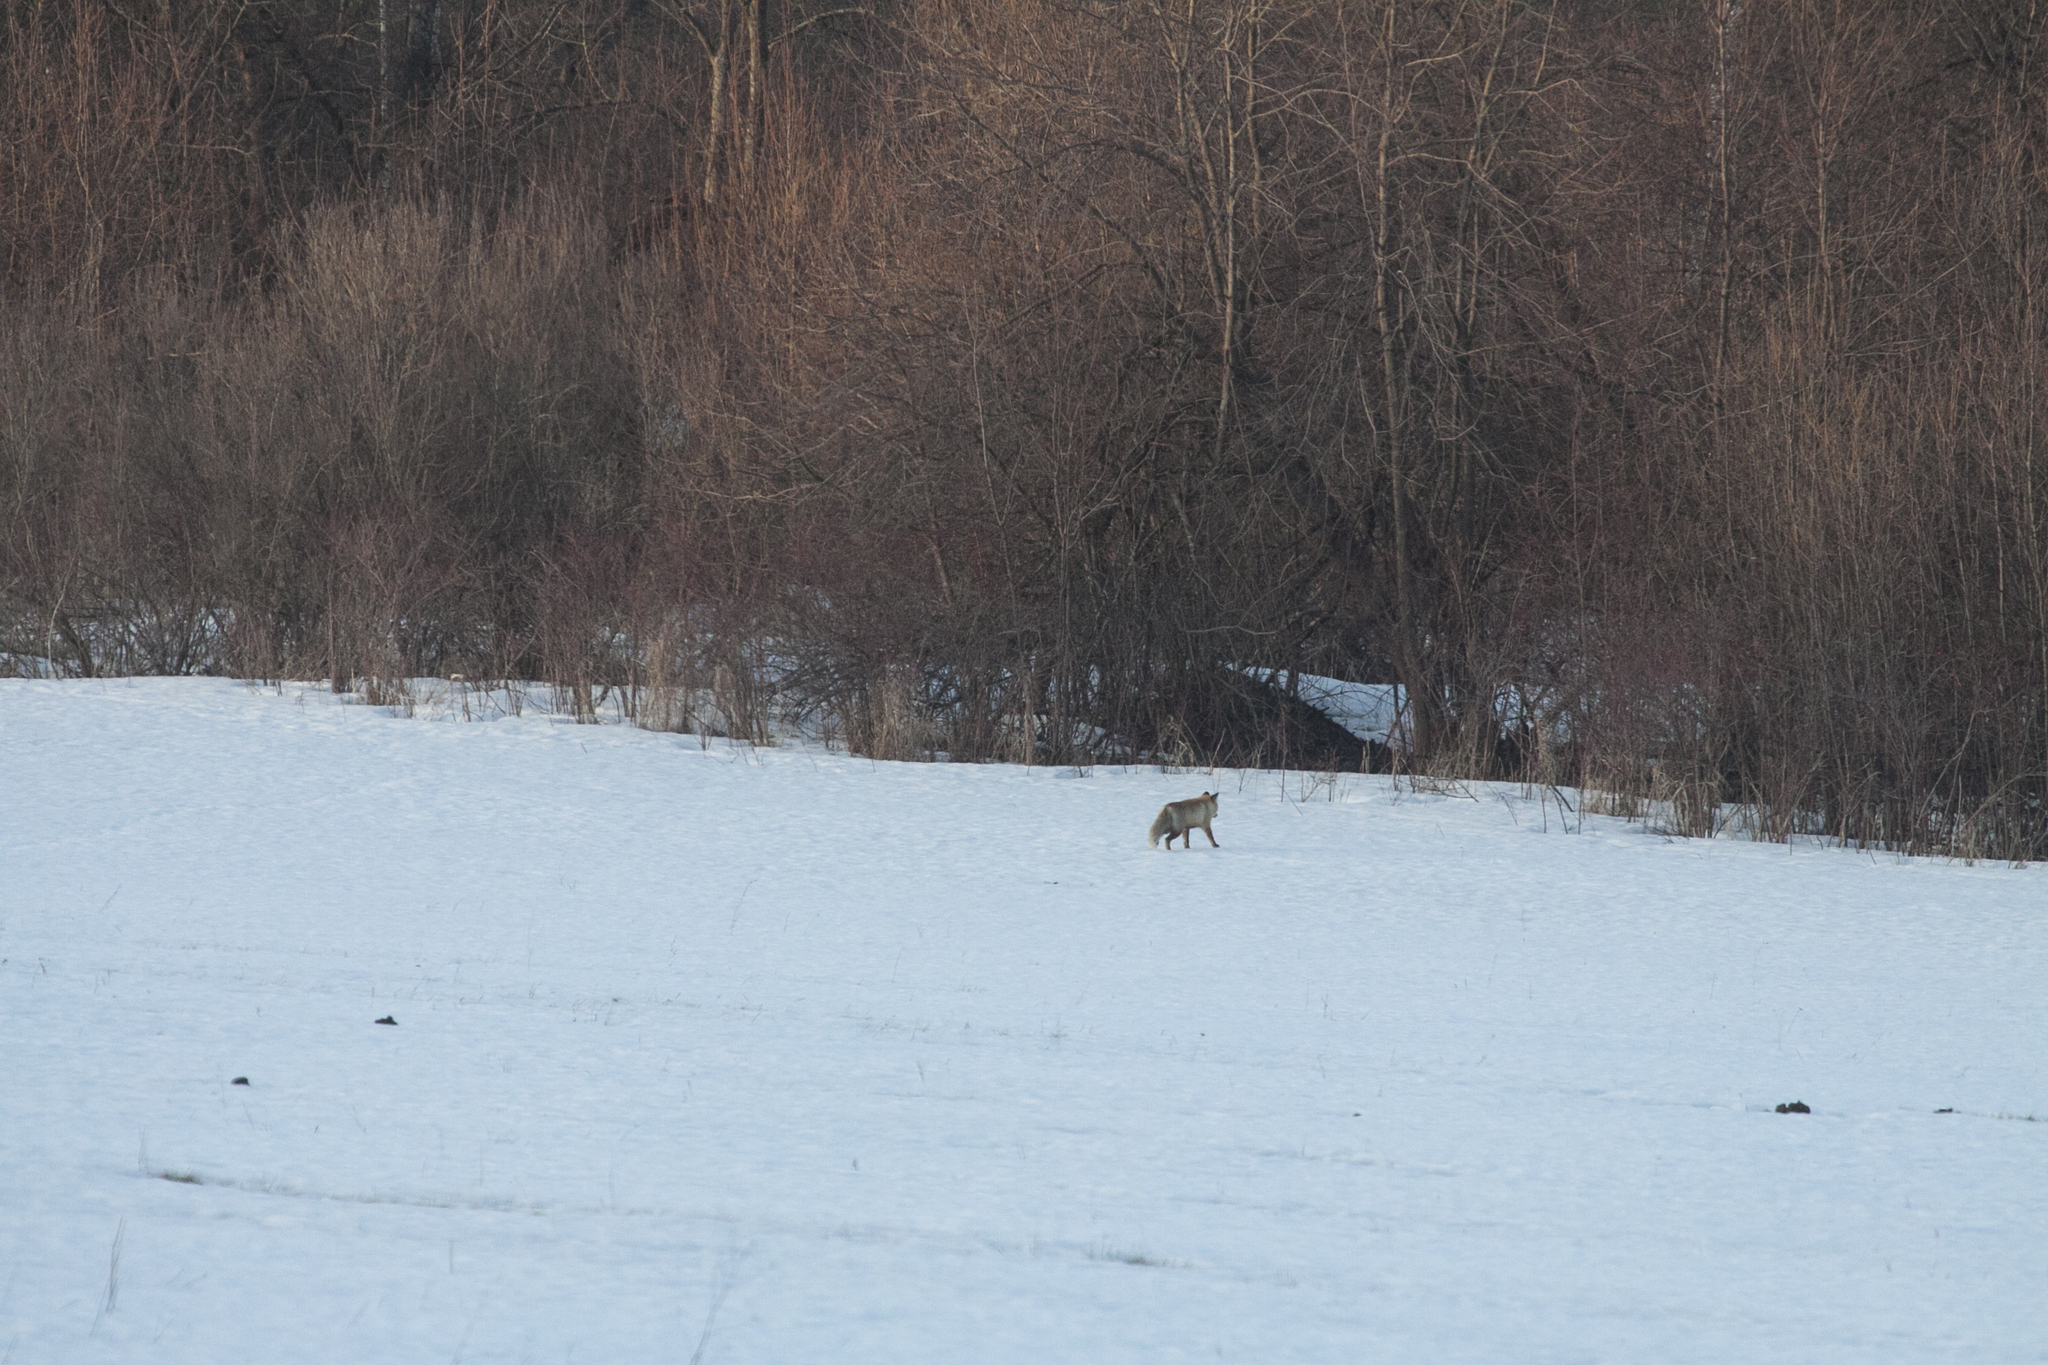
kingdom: Animalia
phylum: Chordata
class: Mammalia
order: Carnivora
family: Canidae
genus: Vulpes
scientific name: Vulpes vulpes
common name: Red fox
